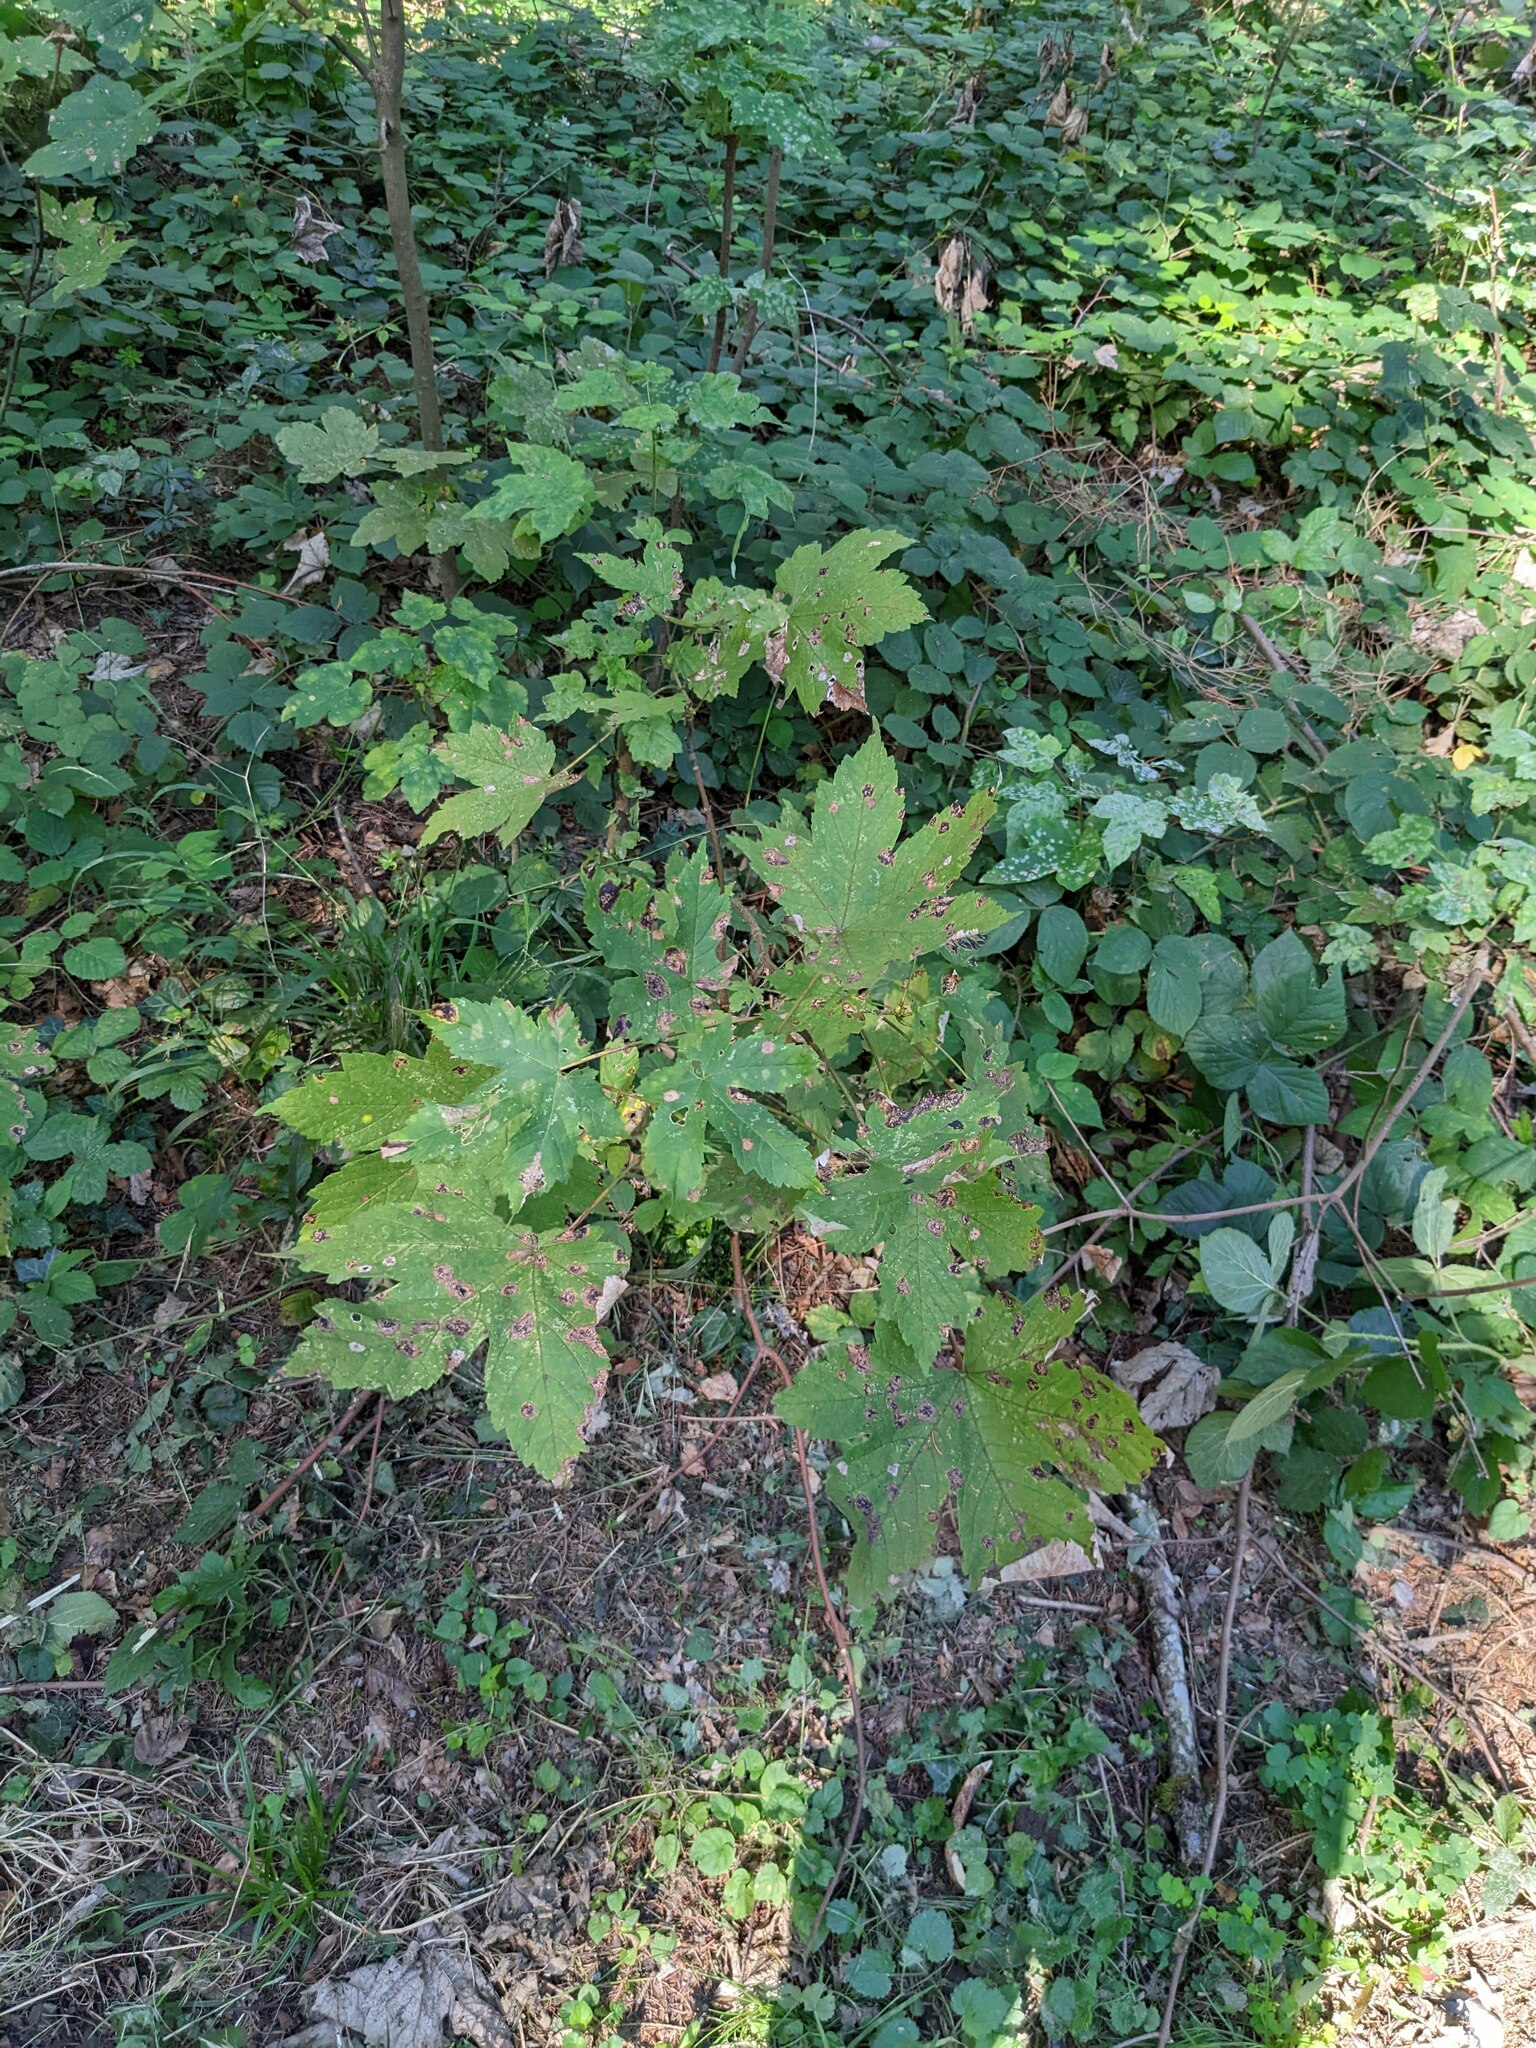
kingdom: Plantae
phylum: Tracheophyta
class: Magnoliopsida
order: Sapindales
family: Sapindaceae
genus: Acer
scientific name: Acer pseudoplatanus
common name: Sycamore
